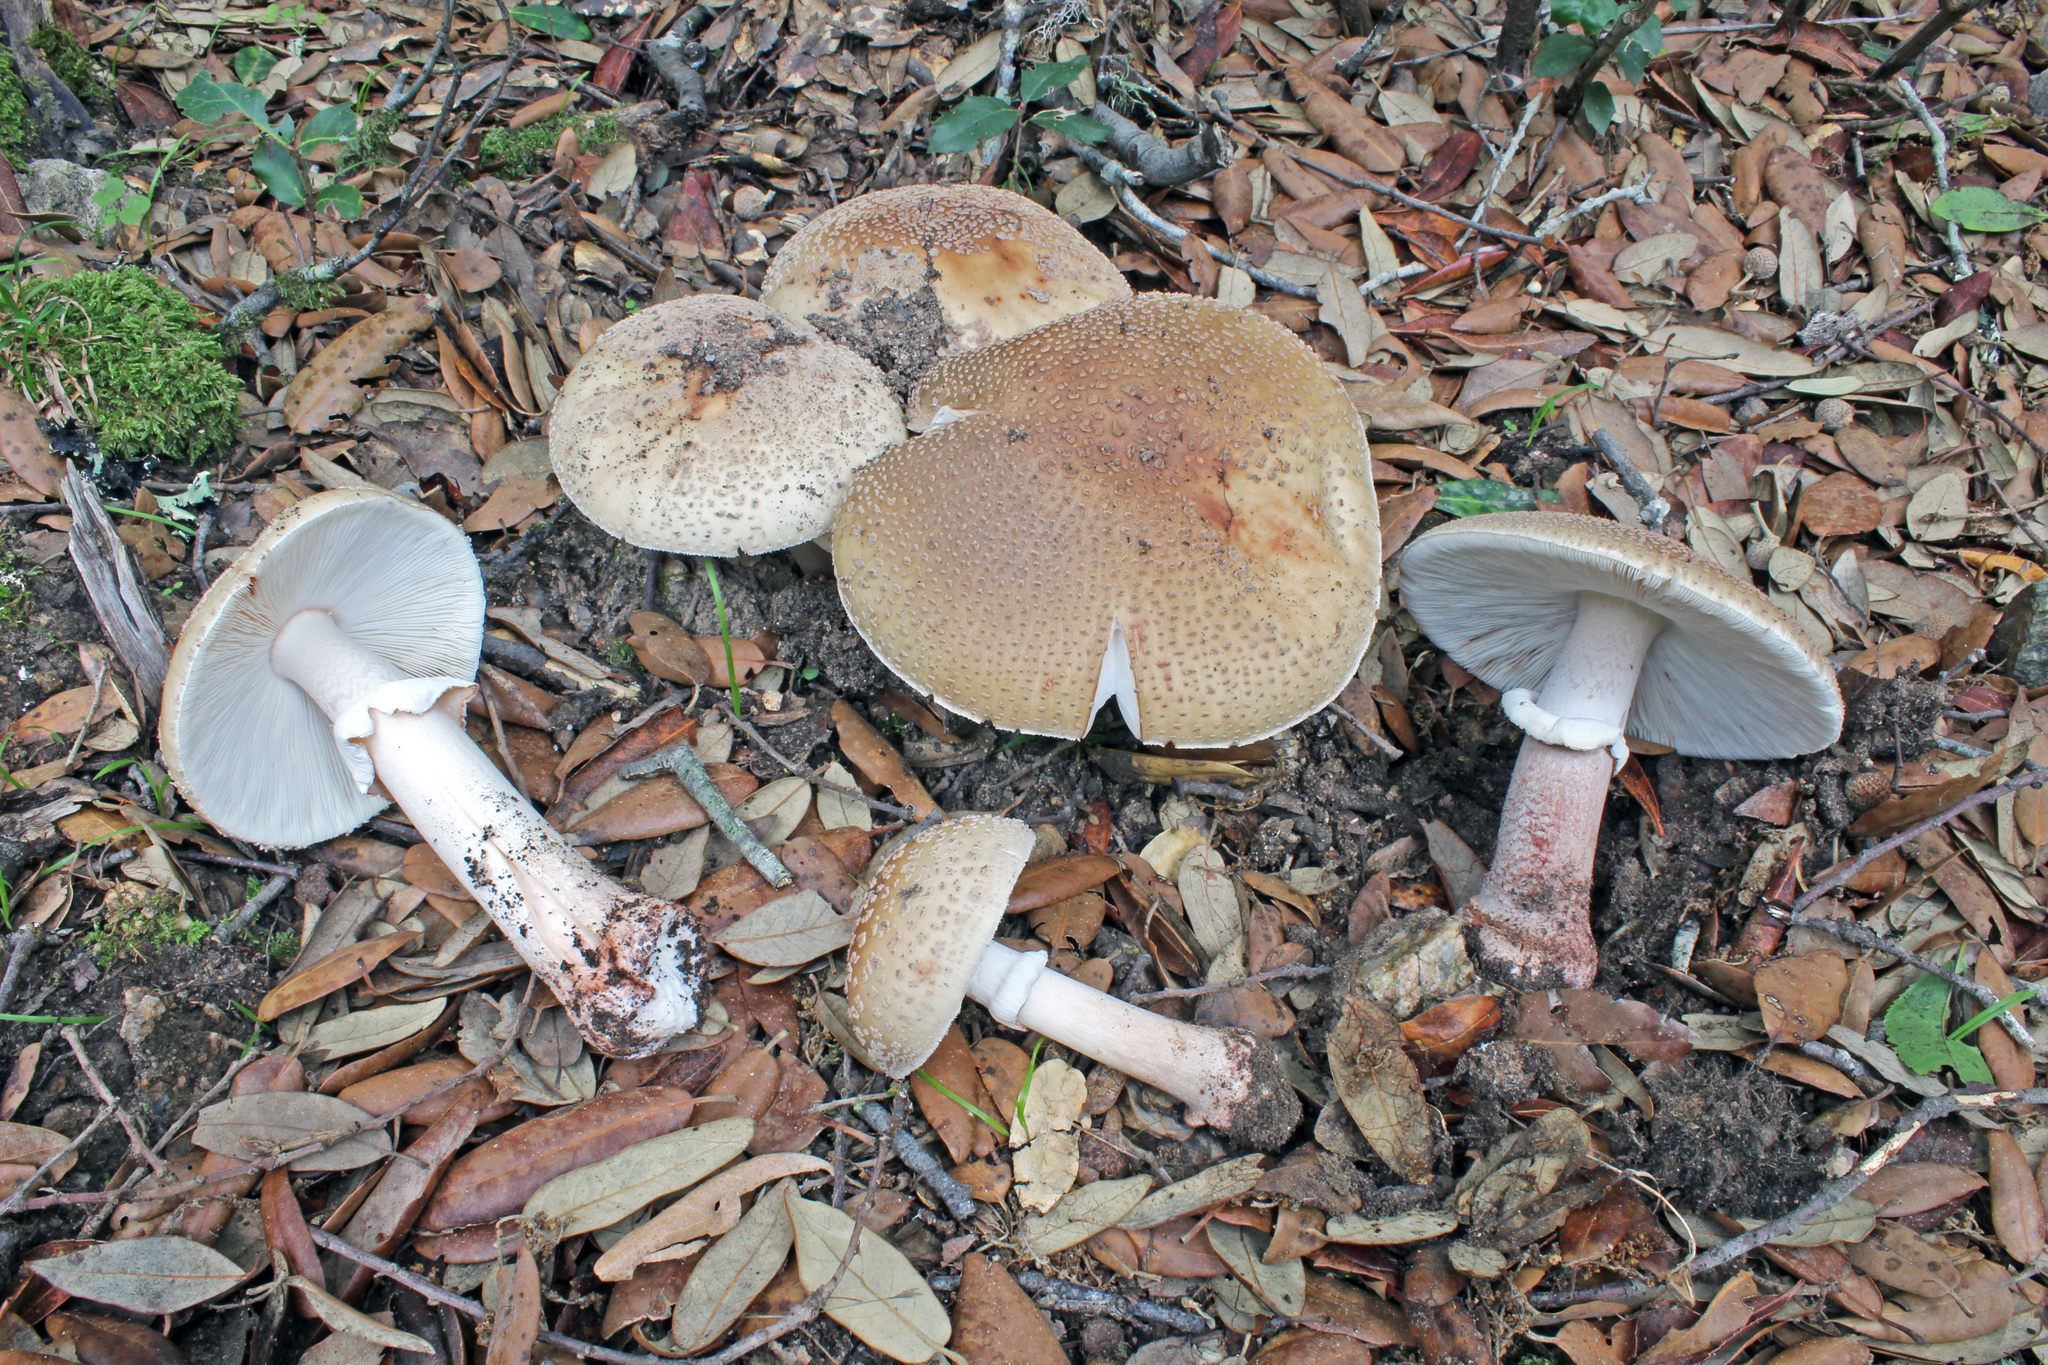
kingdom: Fungi
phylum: Basidiomycota
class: Agaricomycetes
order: Agaricales
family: Amanitaceae
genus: Amanita
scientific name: Amanita rubescens
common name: Blusher
